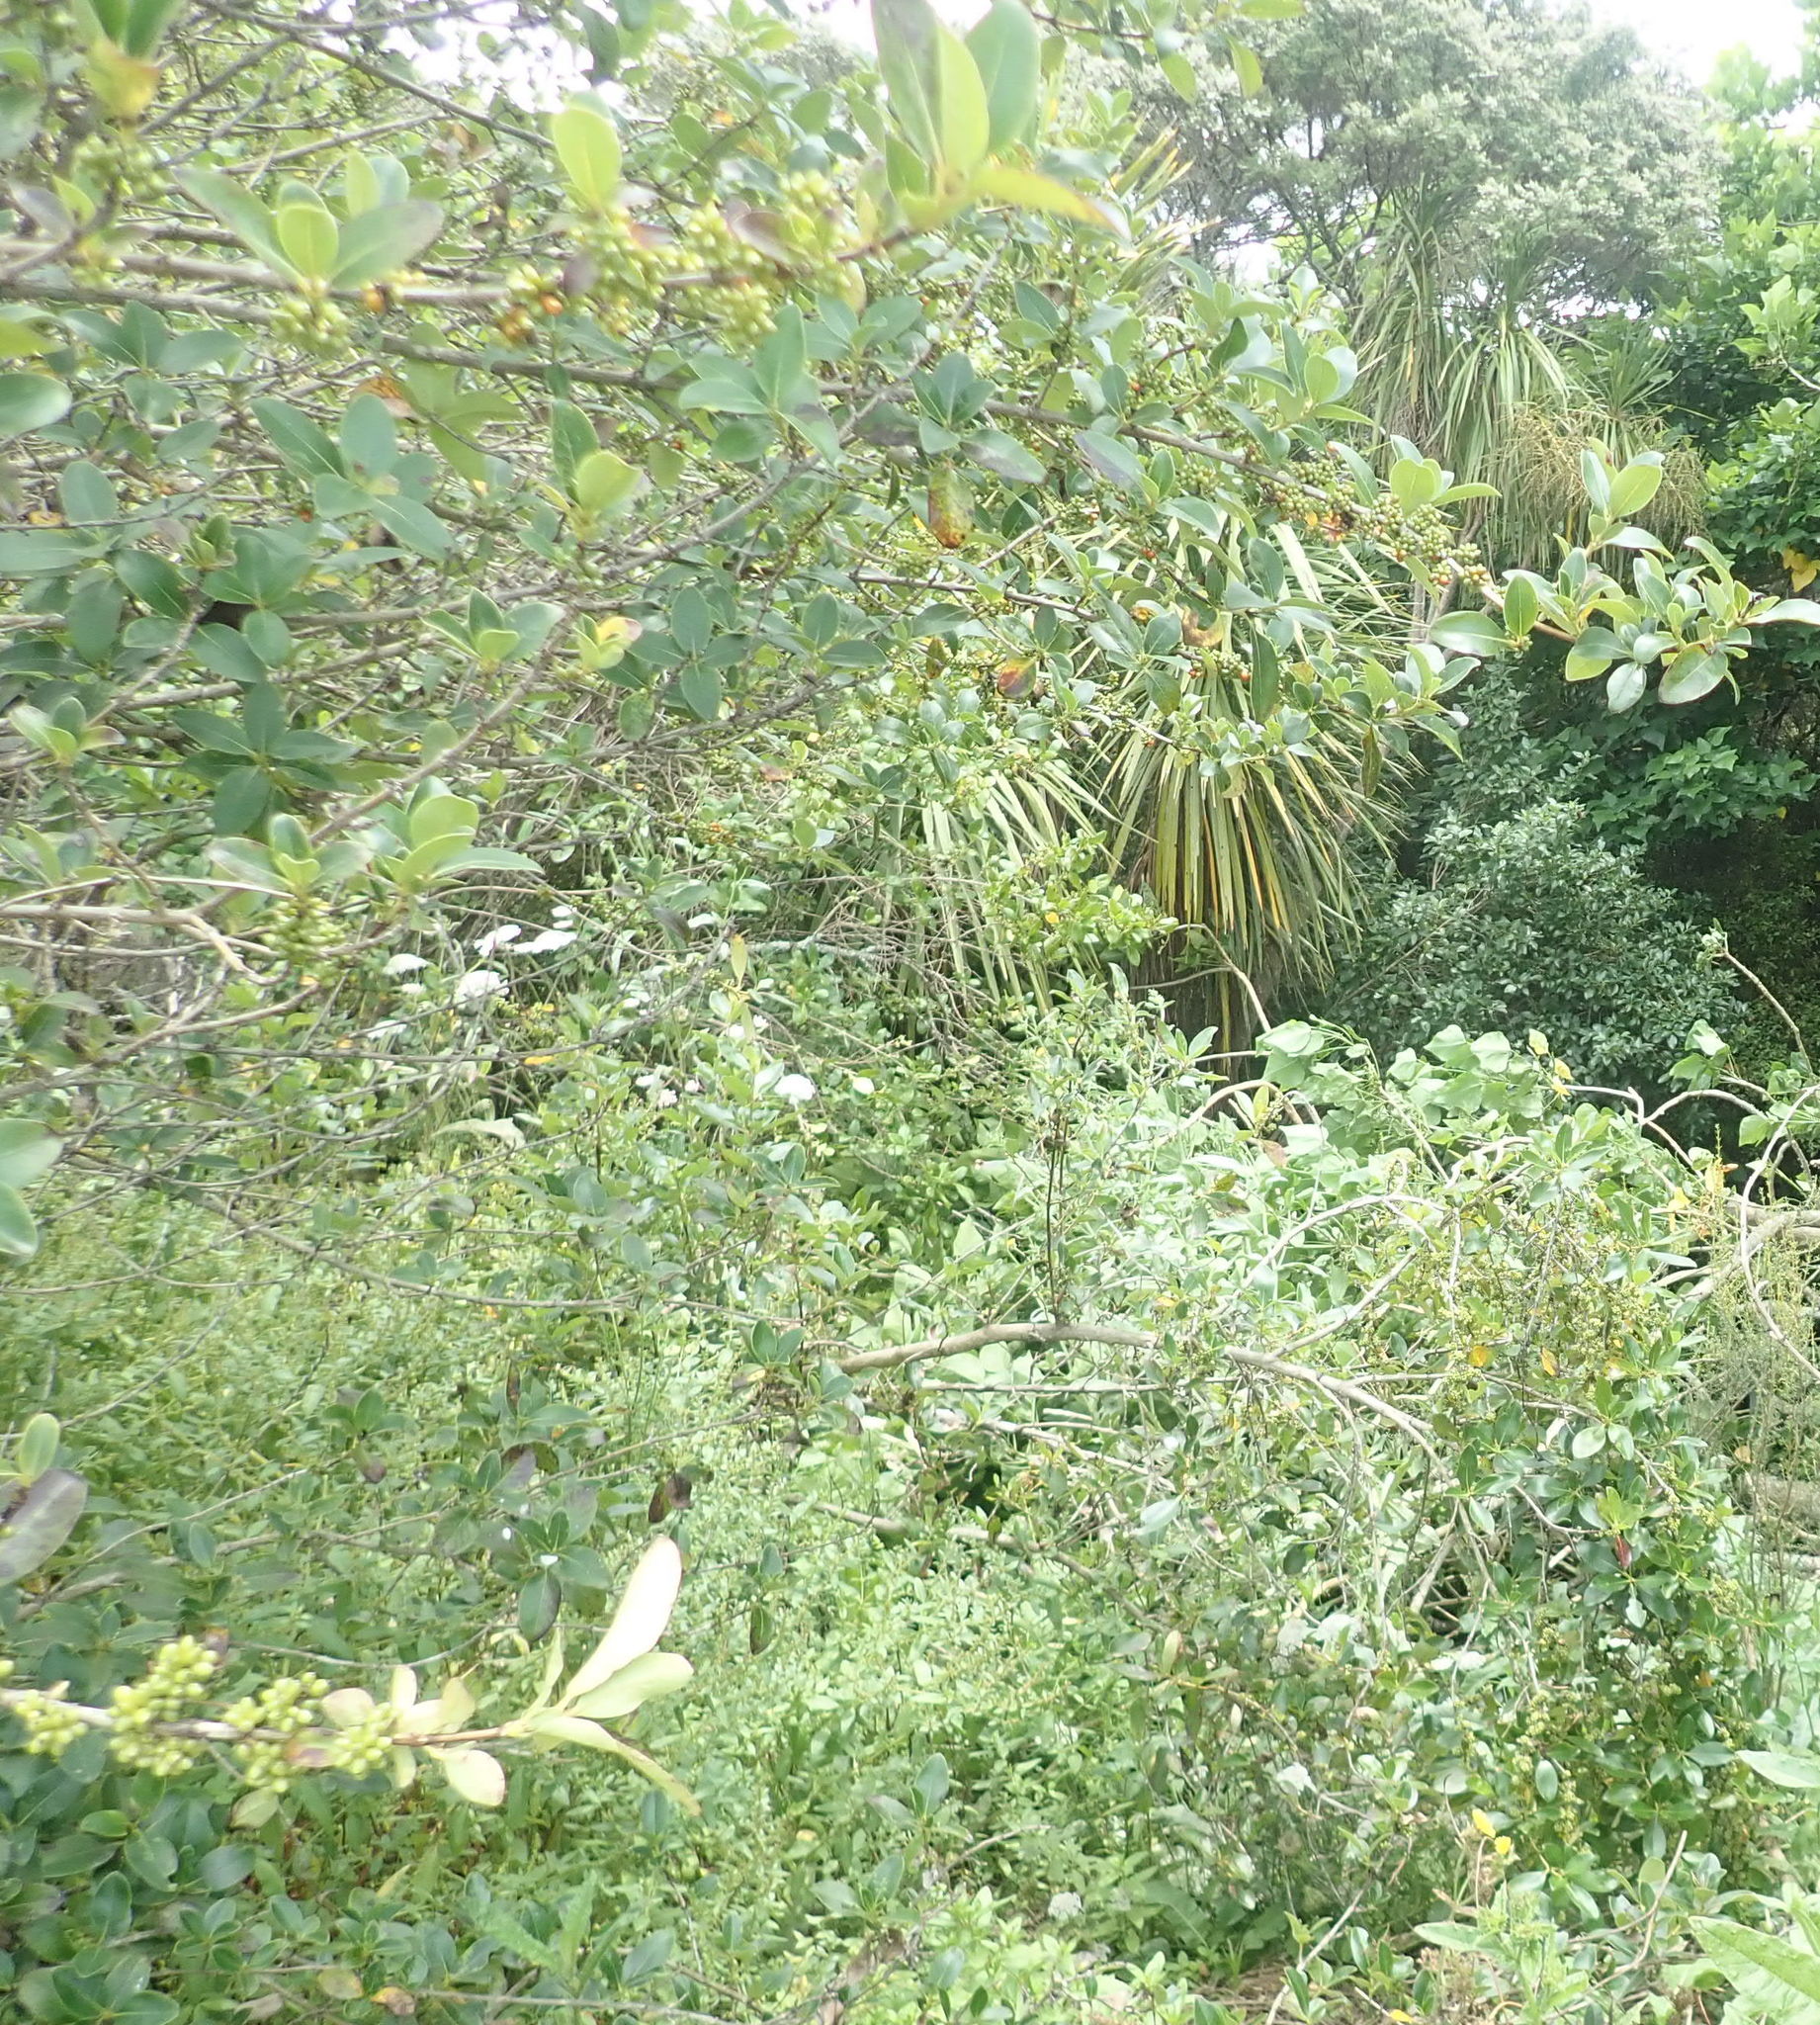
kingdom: Plantae
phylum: Tracheophyta
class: Magnoliopsida
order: Gentianales
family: Rubiaceae
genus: Coprosma
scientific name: Coprosma robusta
